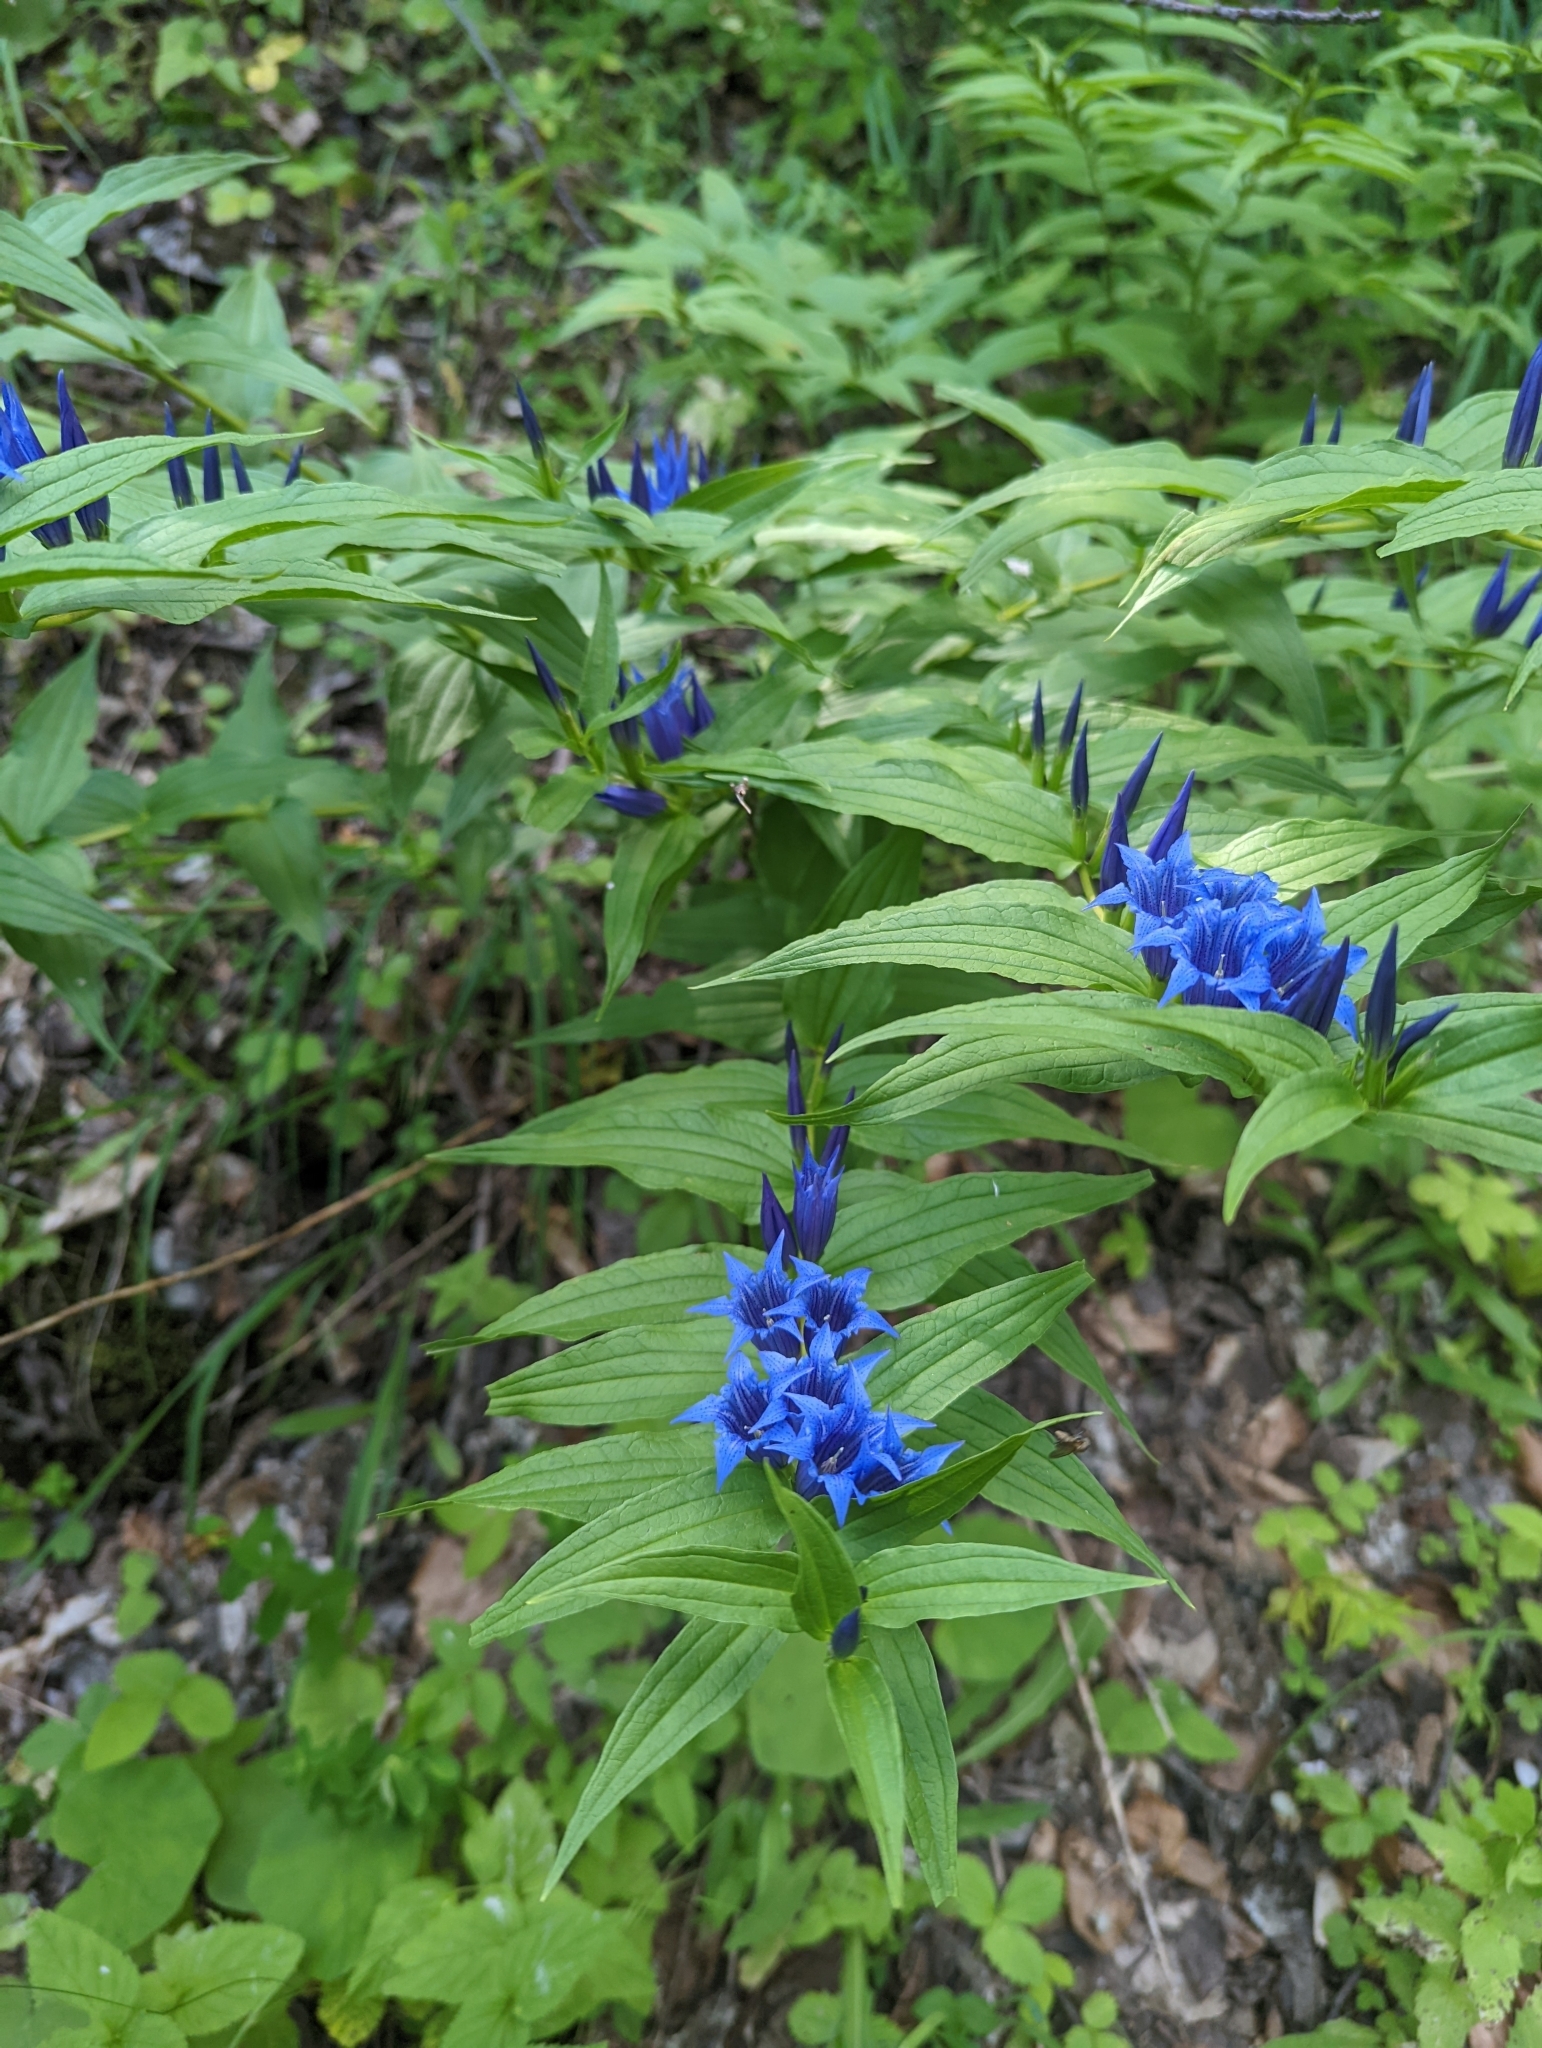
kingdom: Plantae
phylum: Tracheophyta
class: Magnoliopsida
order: Gentianales
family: Gentianaceae
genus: Gentiana
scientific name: Gentiana asclepiadea
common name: Willow gentian
